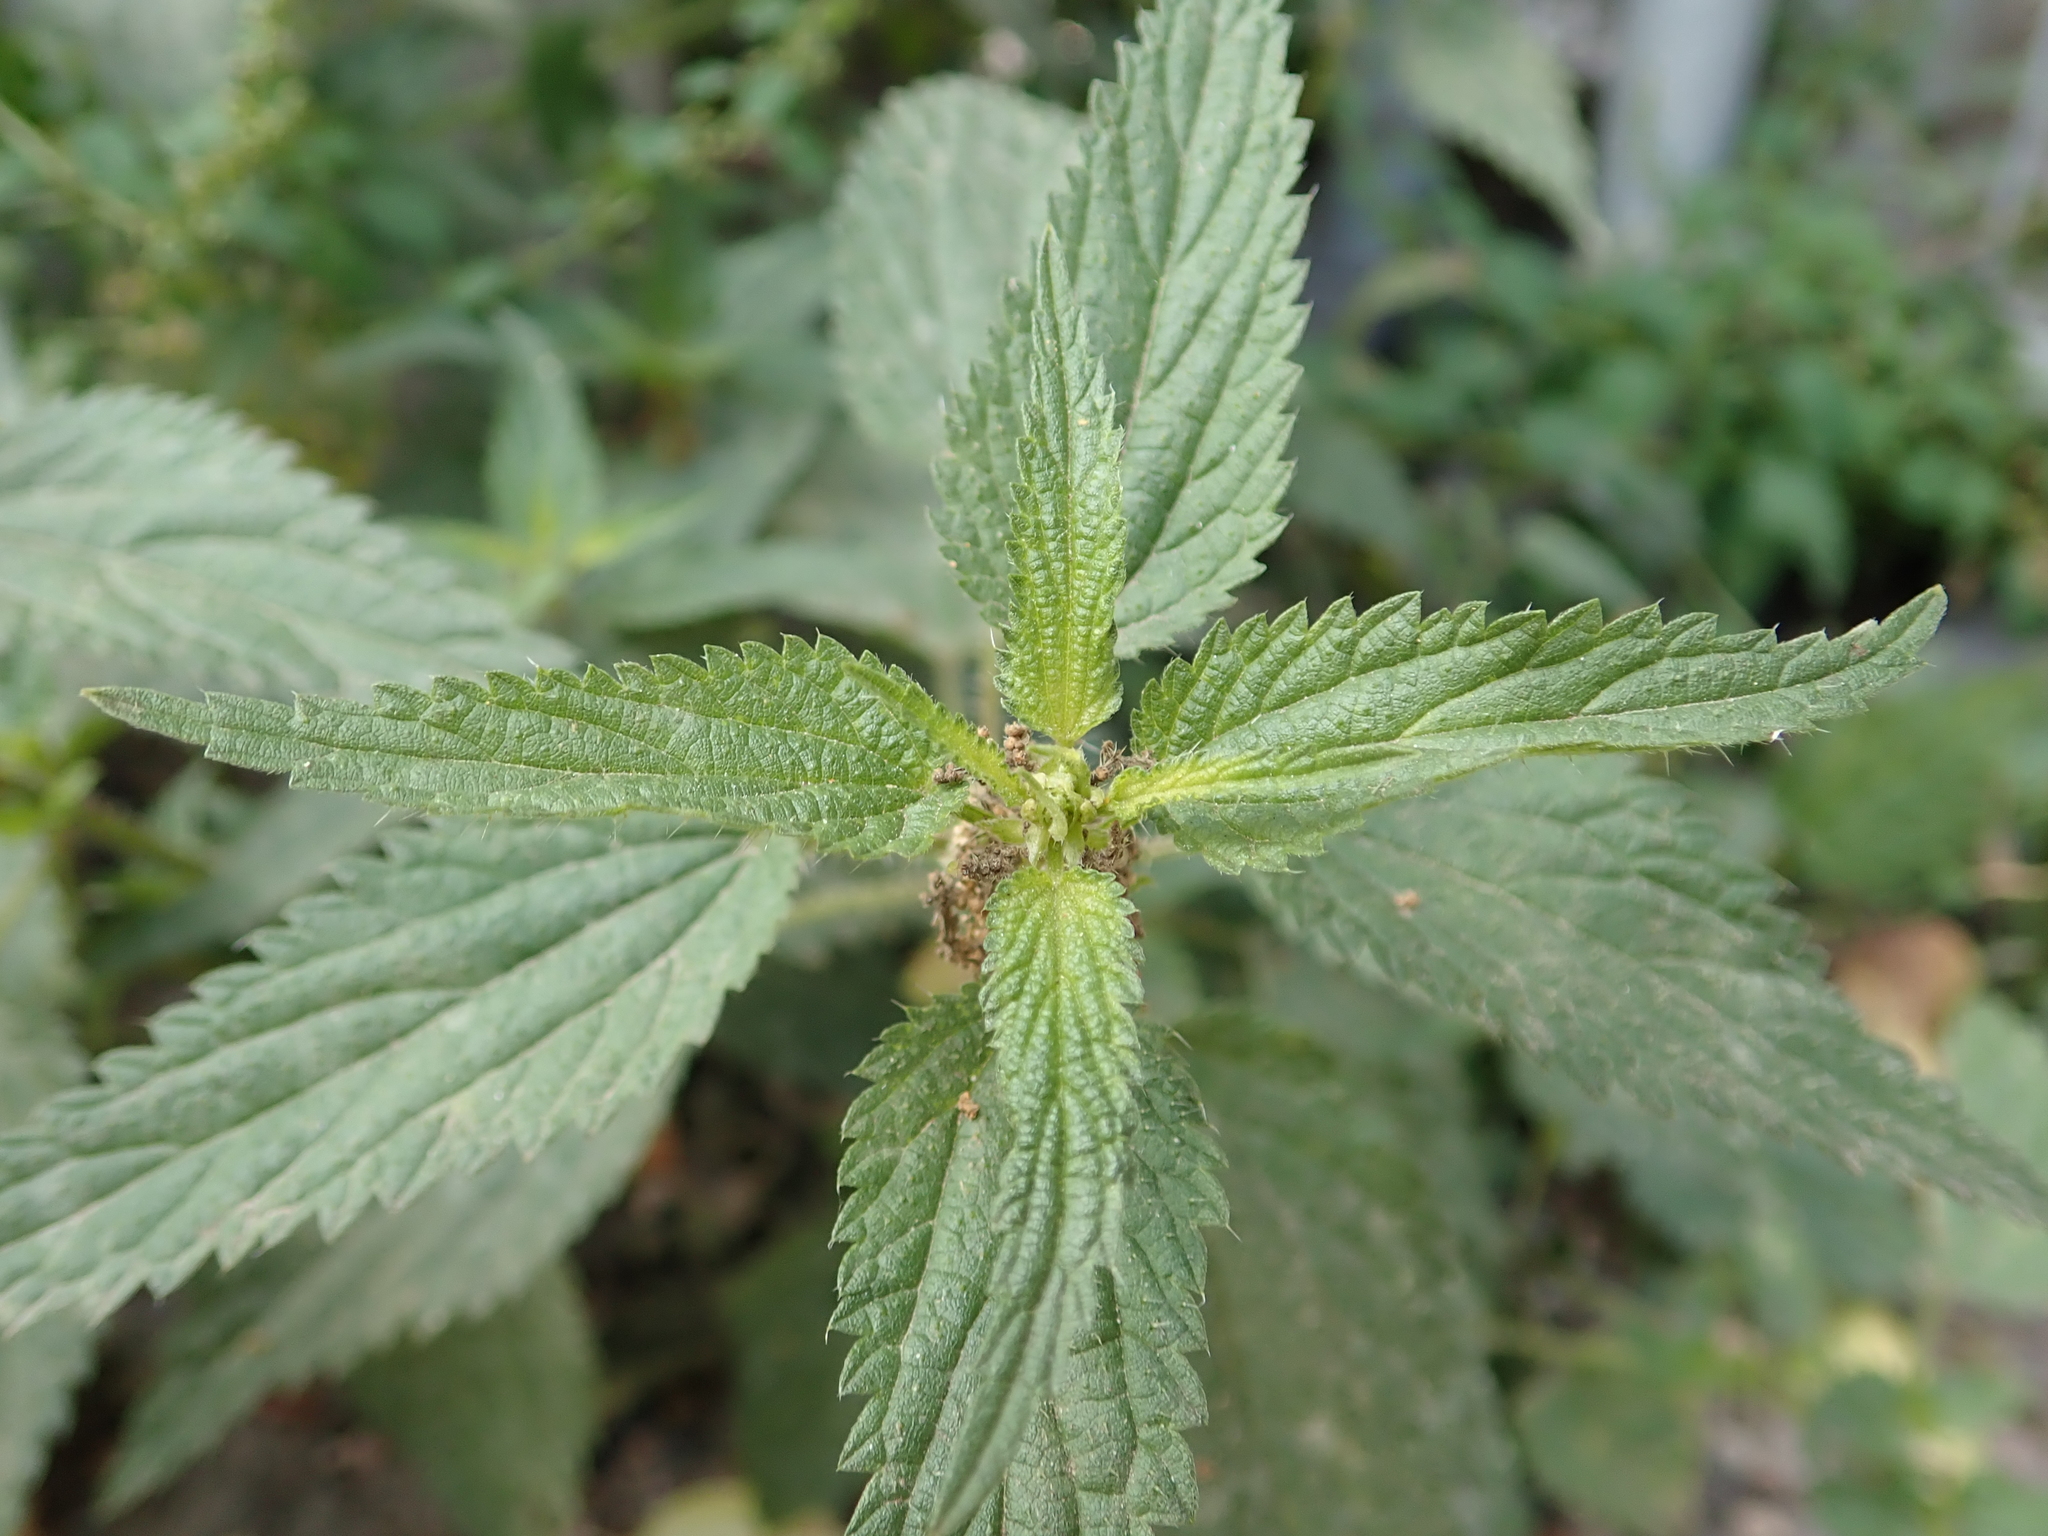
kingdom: Plantae
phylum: Tracheophyta
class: Magnoliopsida
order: Rosales
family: Urticaceae
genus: Urtica
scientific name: Urtica dioica
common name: Common nettle
